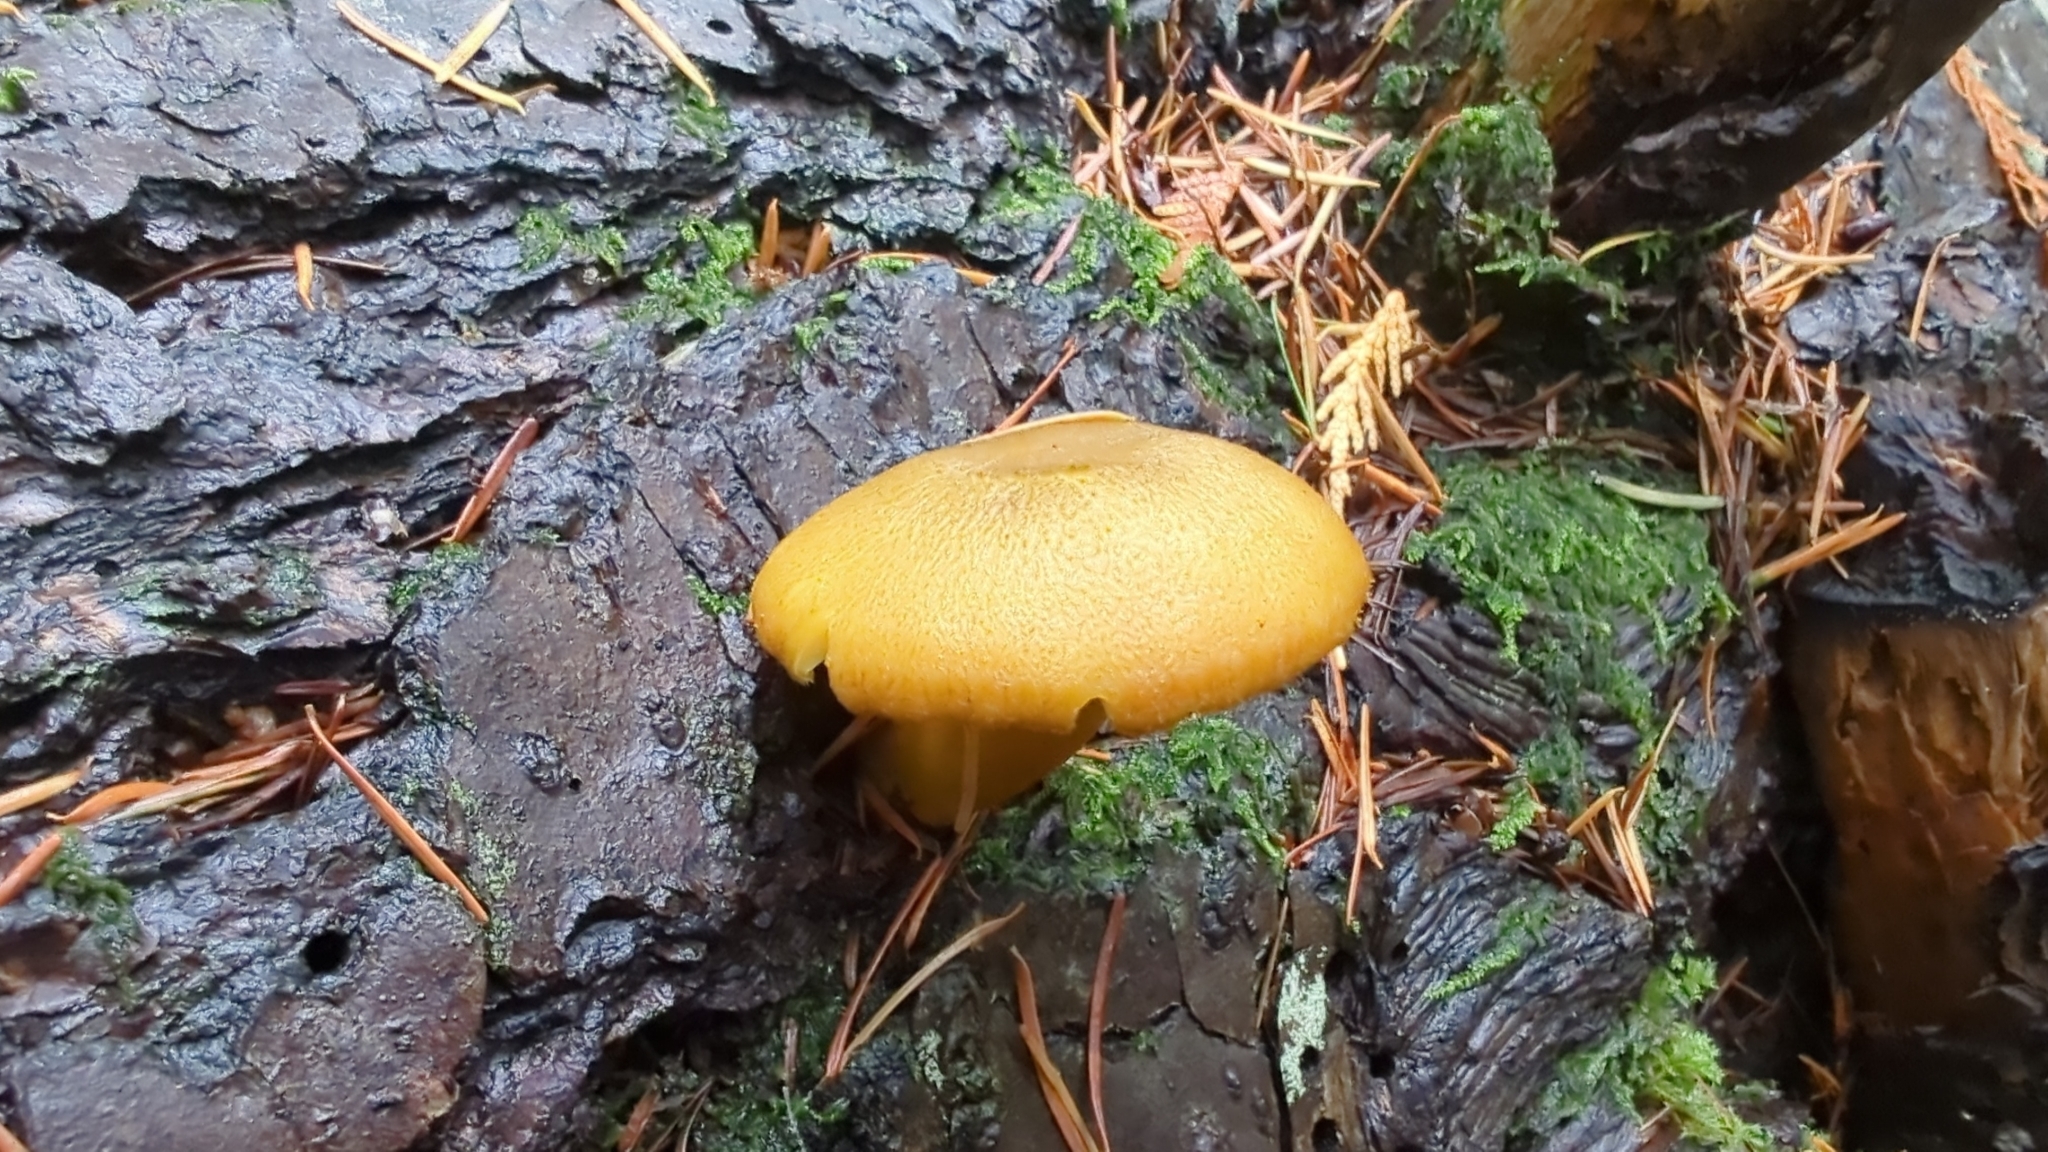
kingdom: Fungi
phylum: Basidiomycota
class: Agaricomycetes
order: Agaricales
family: Tricholomataceae
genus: Tricholomopsis
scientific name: Tricholomopsis decora
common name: Prunes and custard
